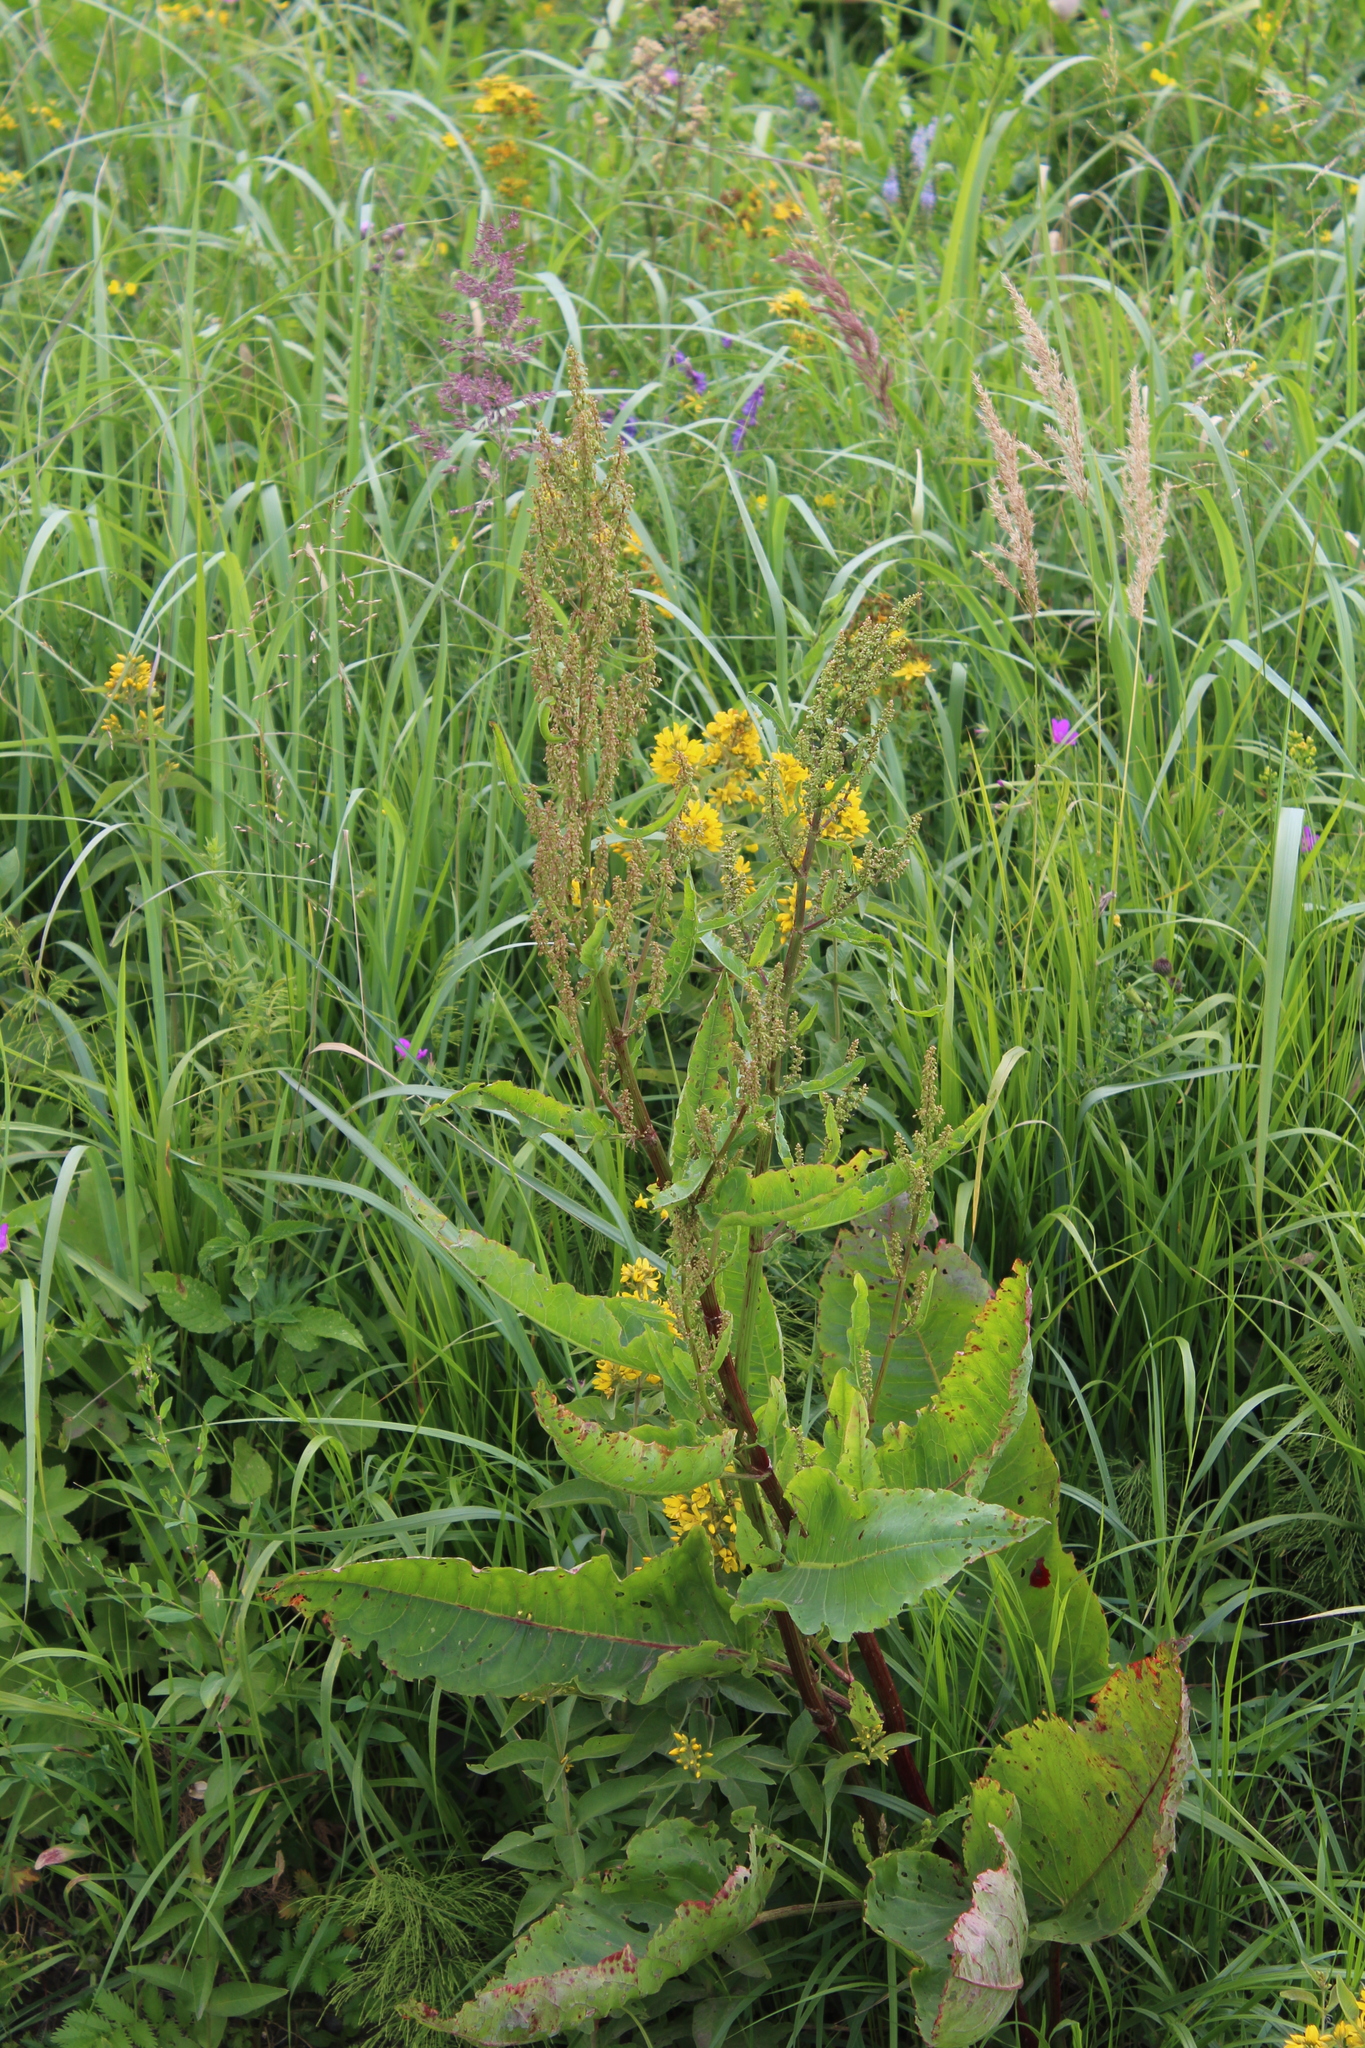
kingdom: Plantae
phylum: Tracheophyta
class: Magnoliopsida
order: Caryophyllales
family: Polygonaceae
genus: Rumex
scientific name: Rumex aquaticus
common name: Scottish dock
